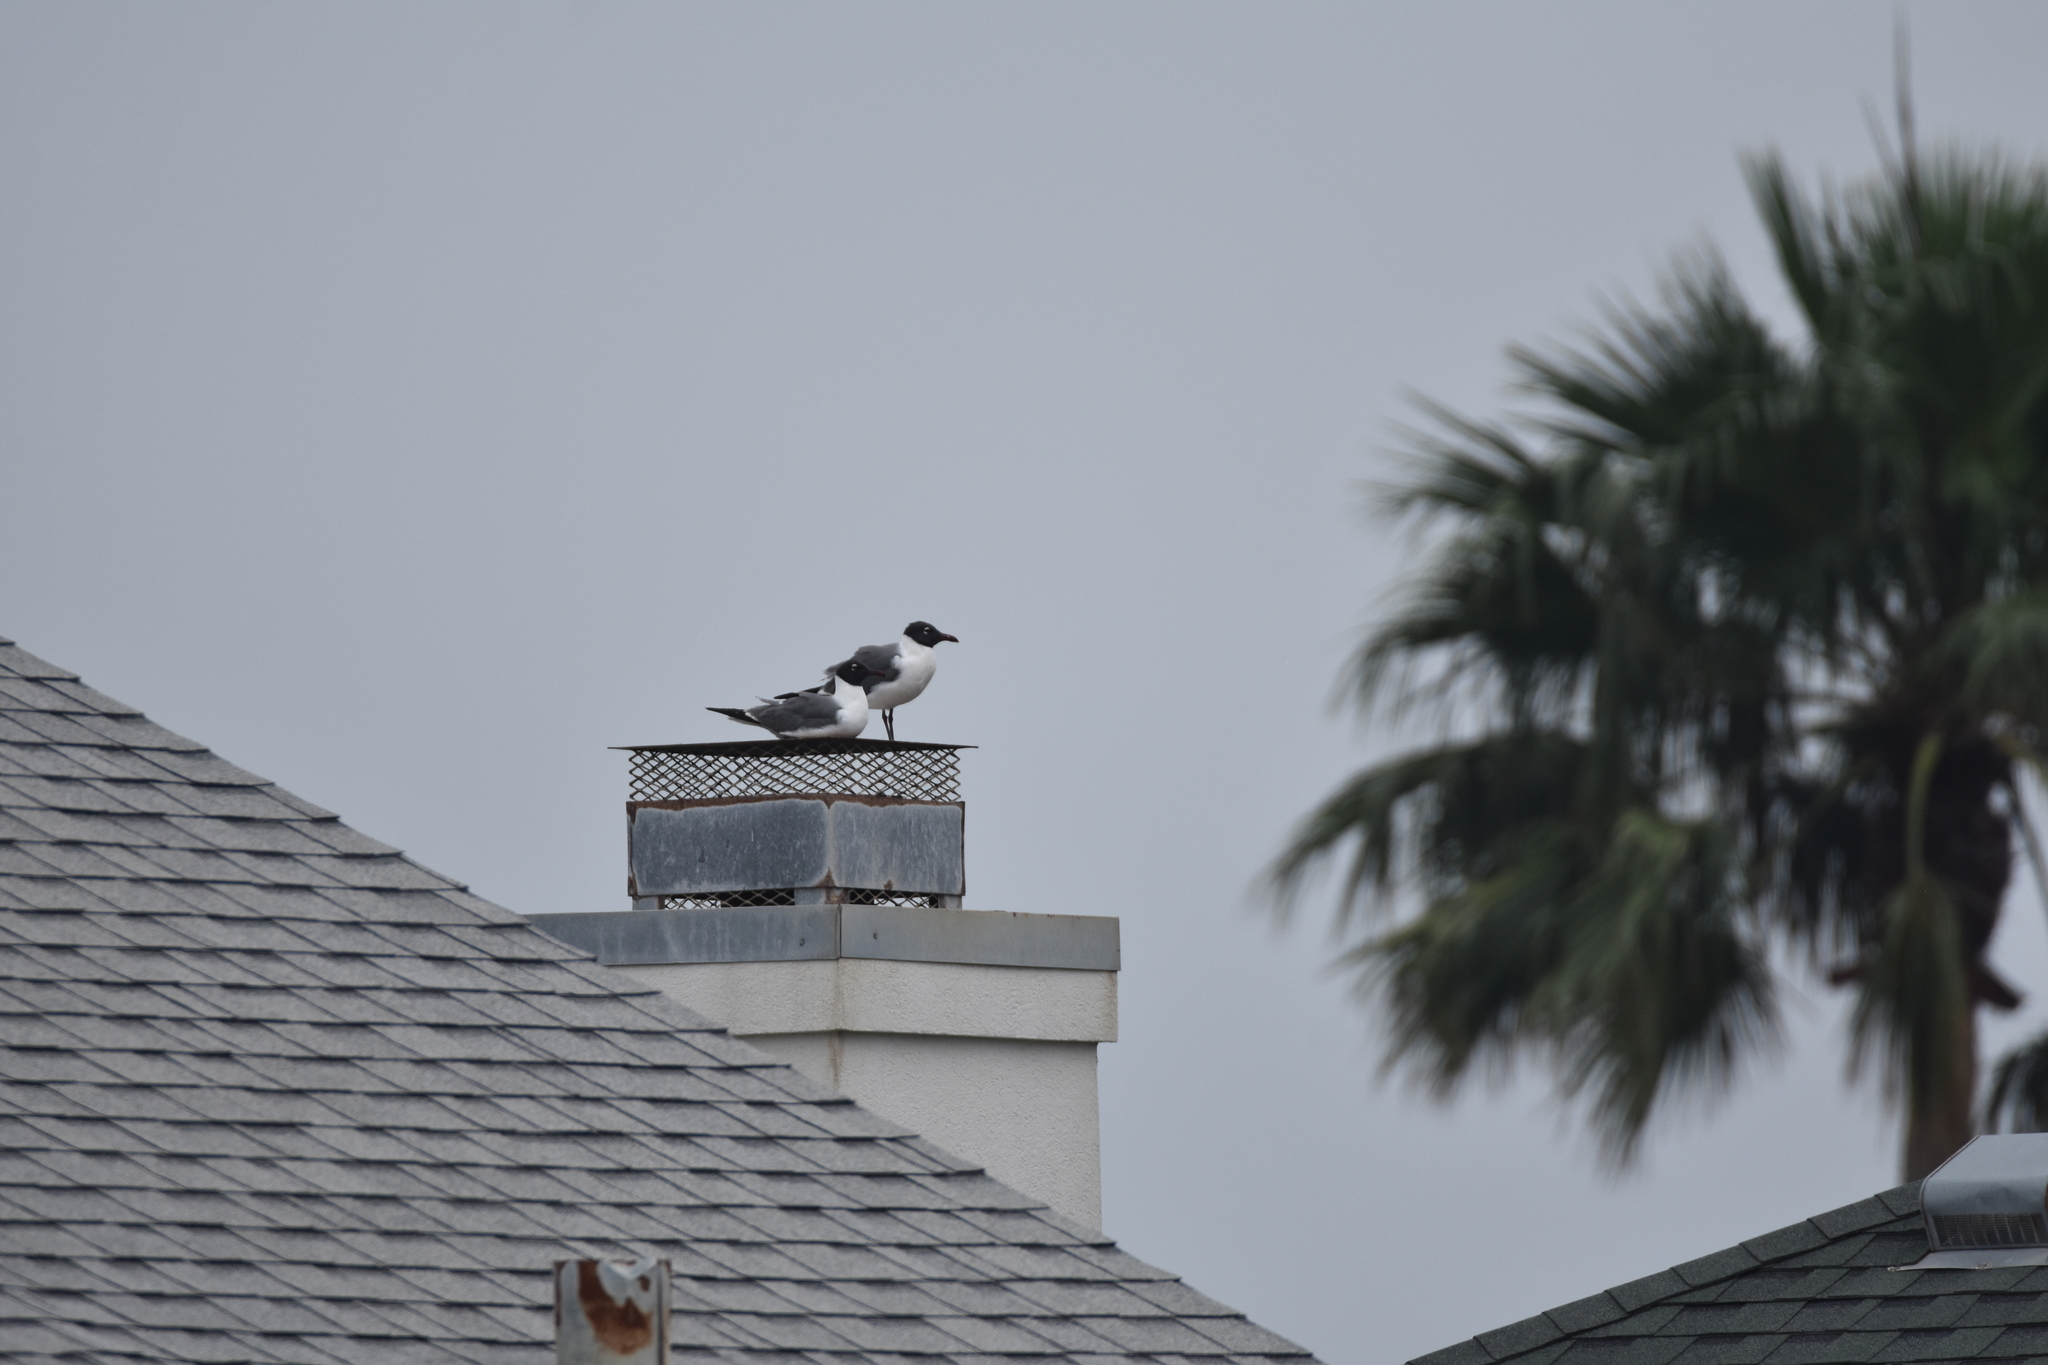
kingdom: Animalia
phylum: Chordata
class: Aves
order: Charadriiformes
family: Laridae
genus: Leucophaeus
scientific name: Leucophaeus atricilla
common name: Laughing gull
